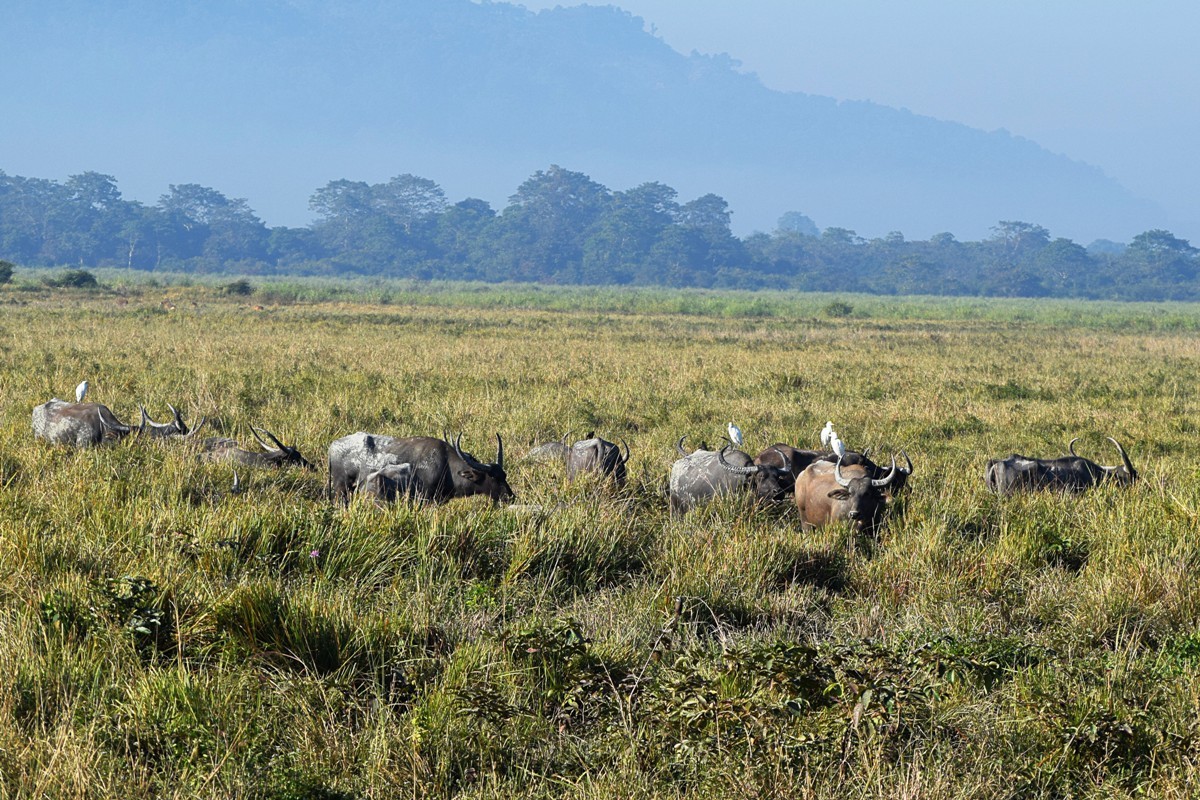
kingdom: Animalia
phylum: Chordata
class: Mammalia
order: Artiodactyla
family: Bovidae
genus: Bubalus
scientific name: Bubalus bubalis
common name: Water buffalo
